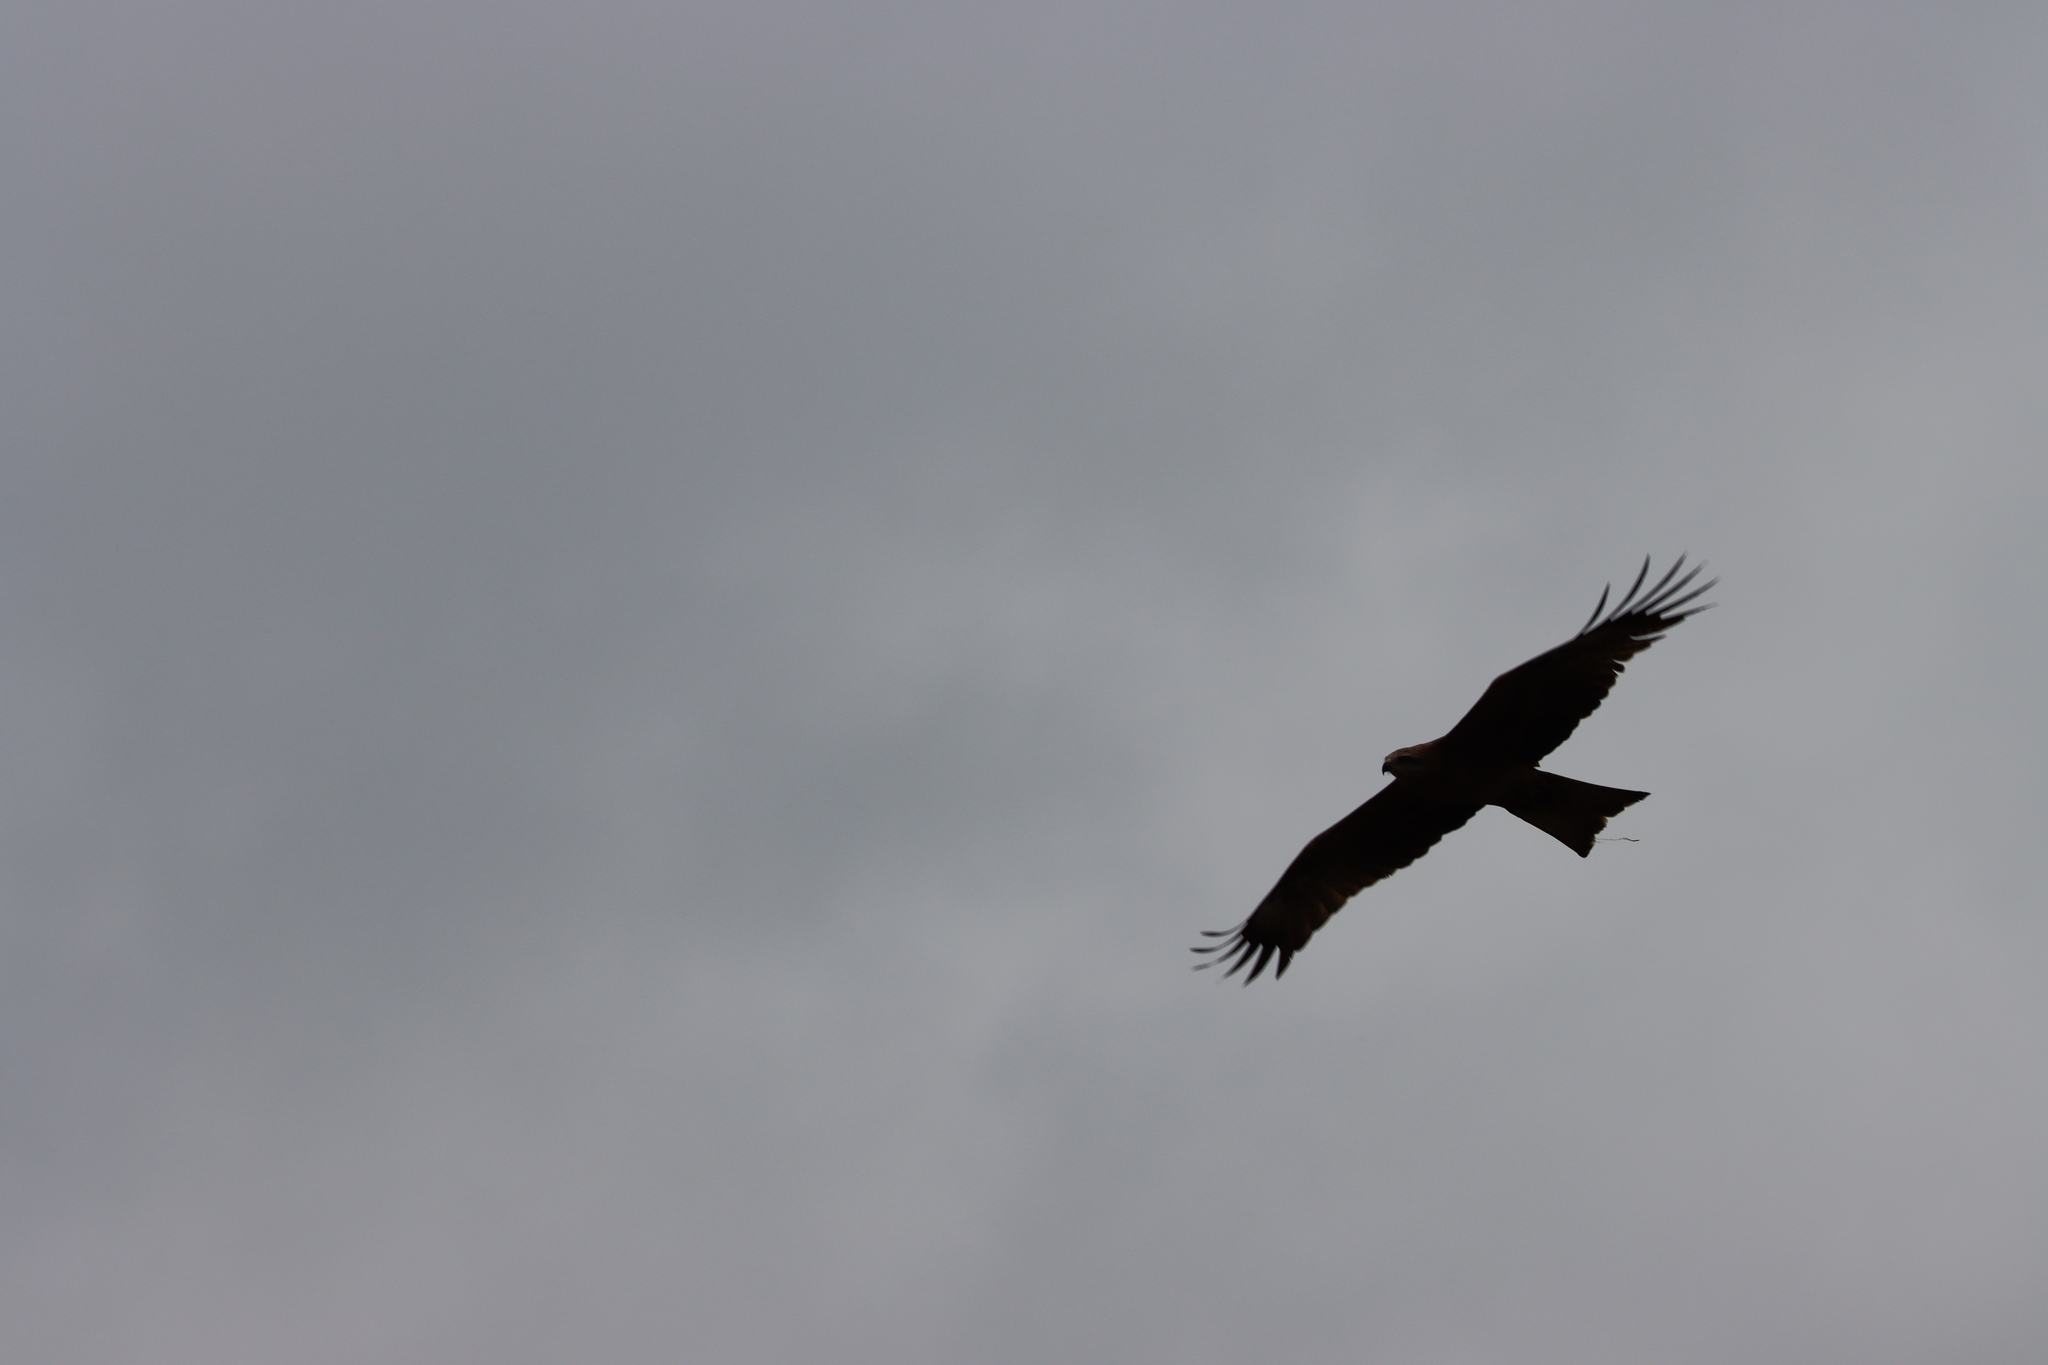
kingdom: Animalia
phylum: Chordata
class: Aves
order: Accipitriformes
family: Accipitridae
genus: Milvus
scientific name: Milvus migrans
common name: Black kite
